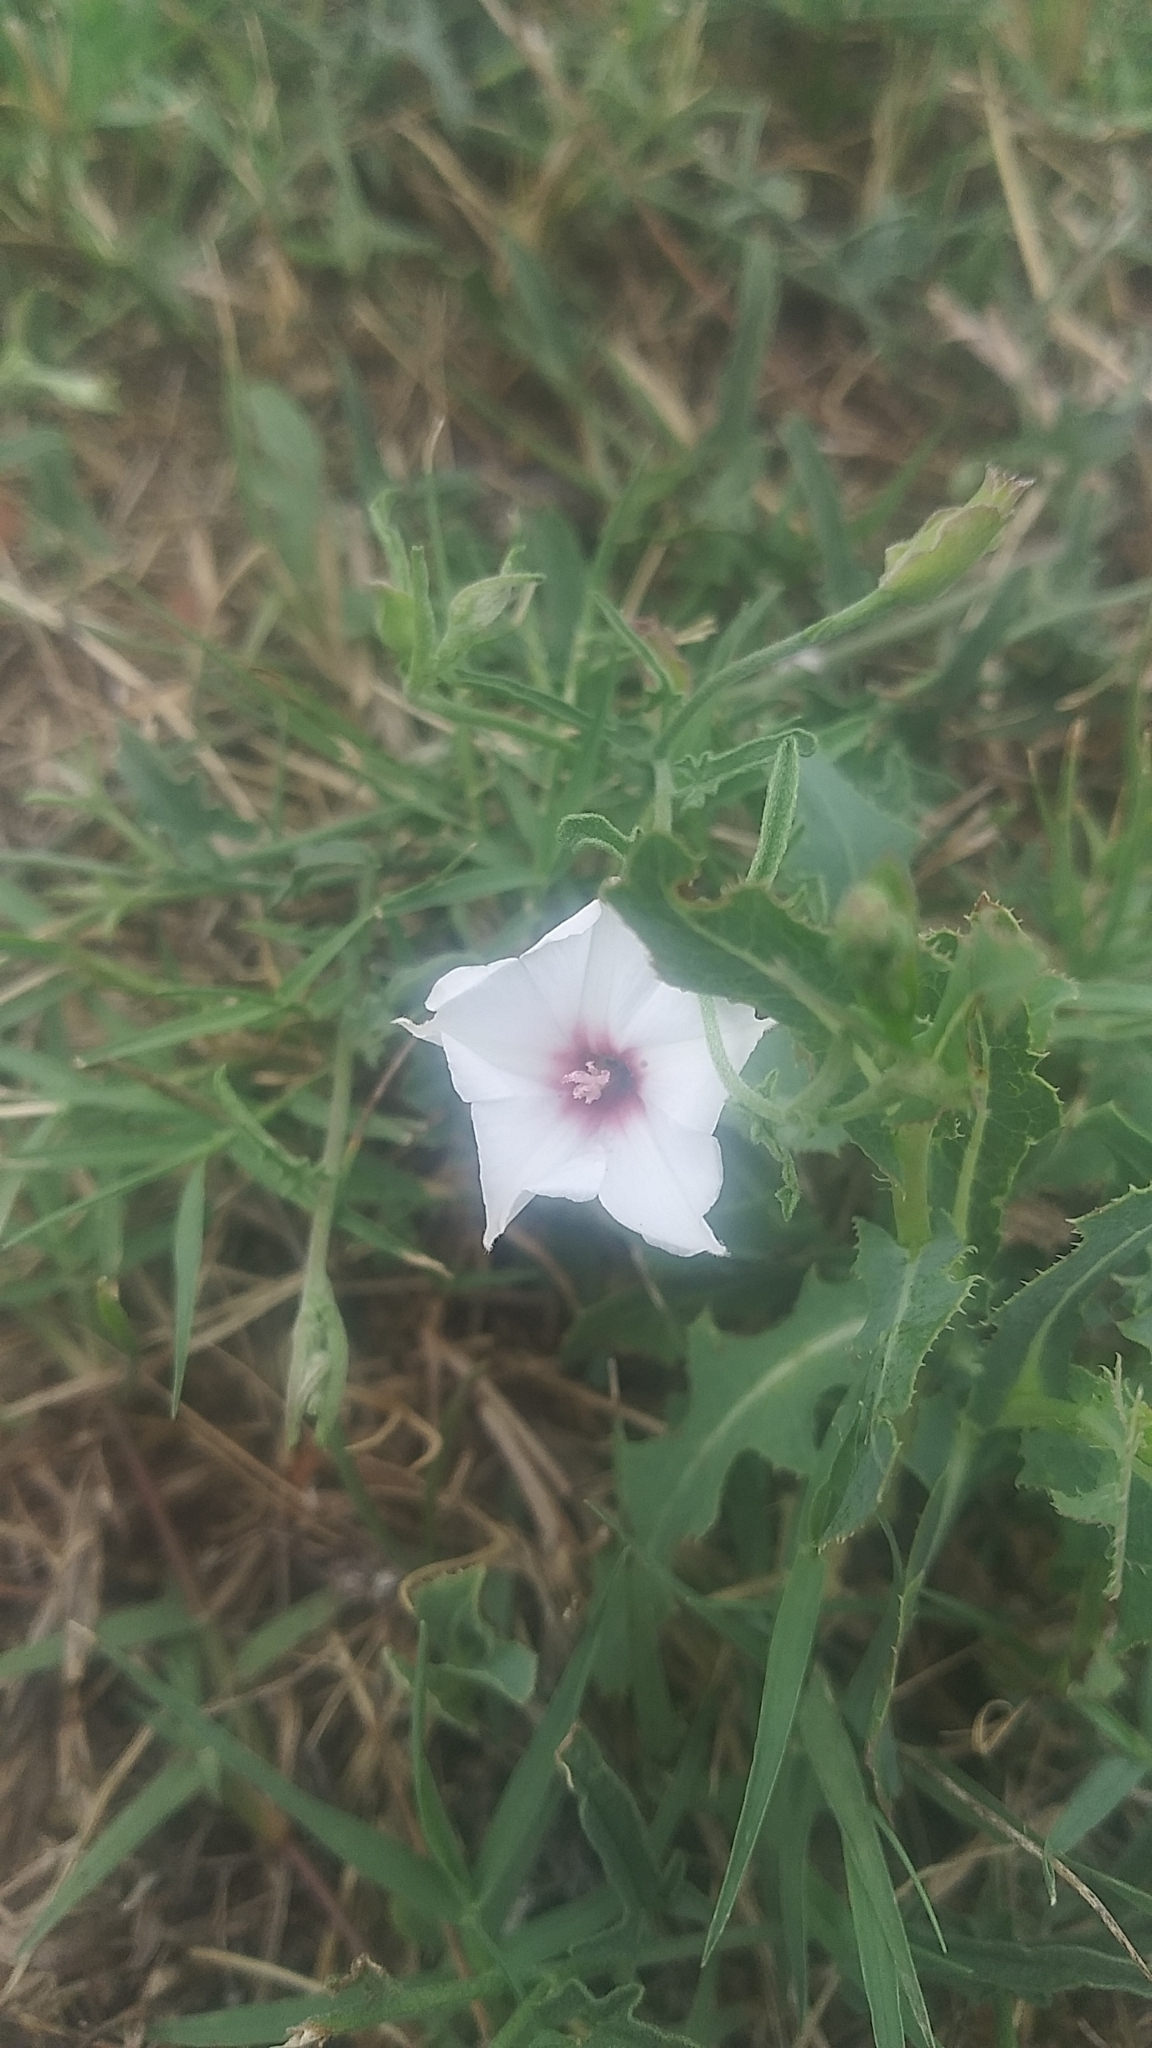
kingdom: Plantae
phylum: Tracheophyta
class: Magnoliopsida
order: Solanales
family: Convolvulaceae
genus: Convolvulus
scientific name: Convolvulus equitans
